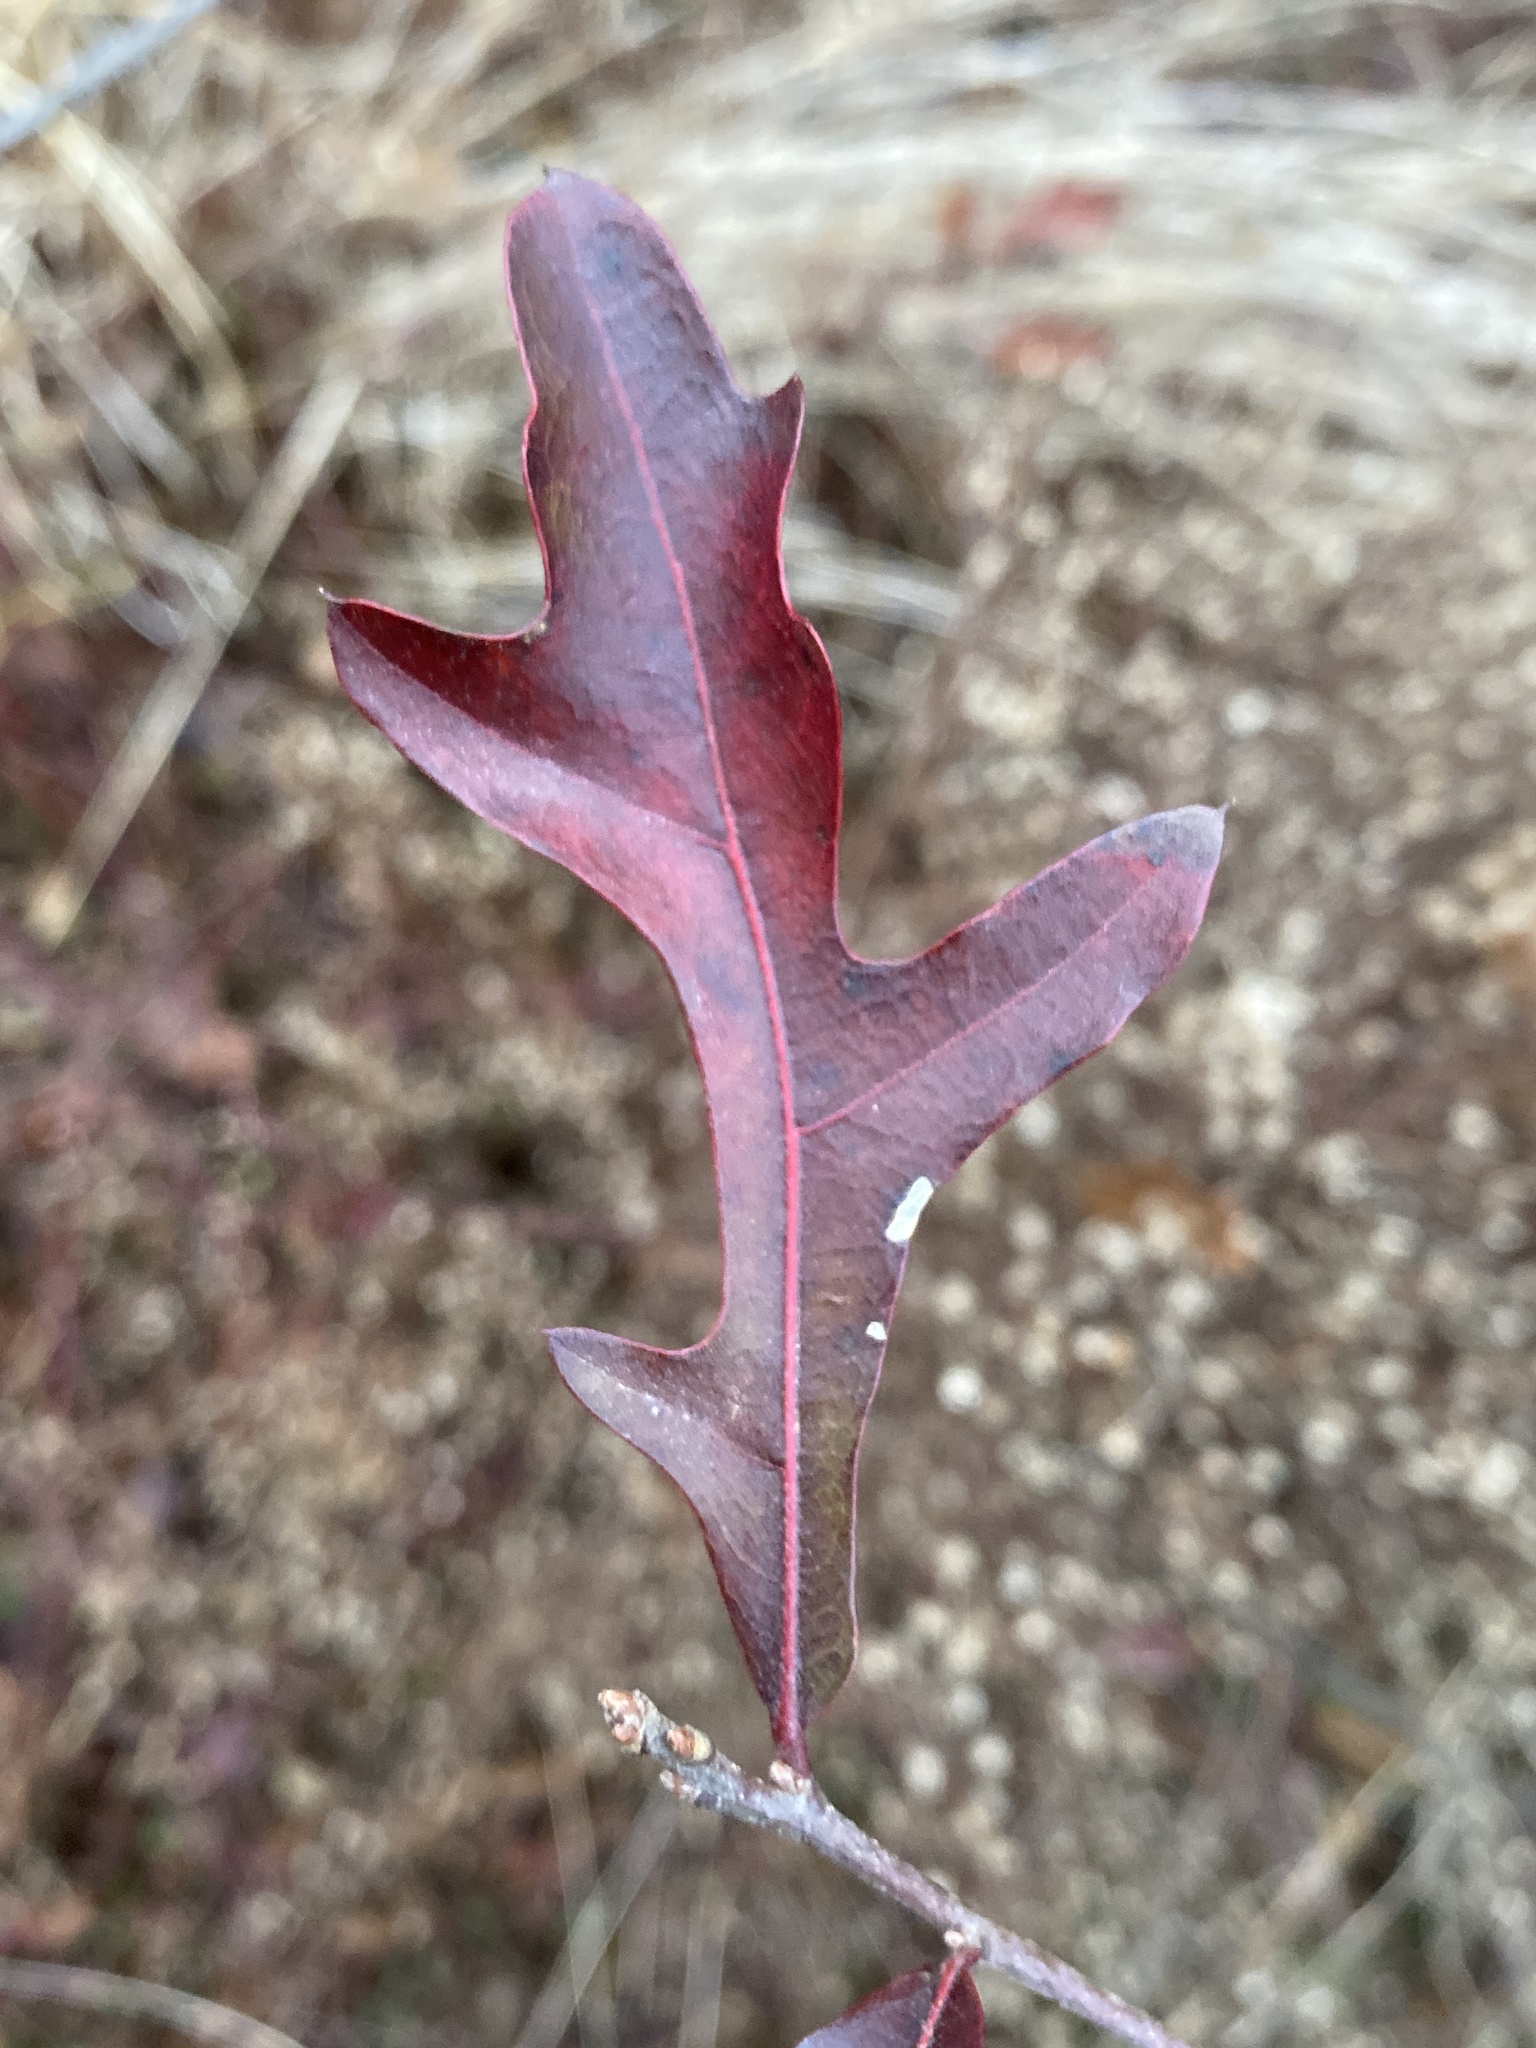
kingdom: Plantae
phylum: Tracheophyta
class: Magnoliopsida
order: Fagales
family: Fagaceae
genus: Quercus
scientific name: Quercus nigra
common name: Water oak
